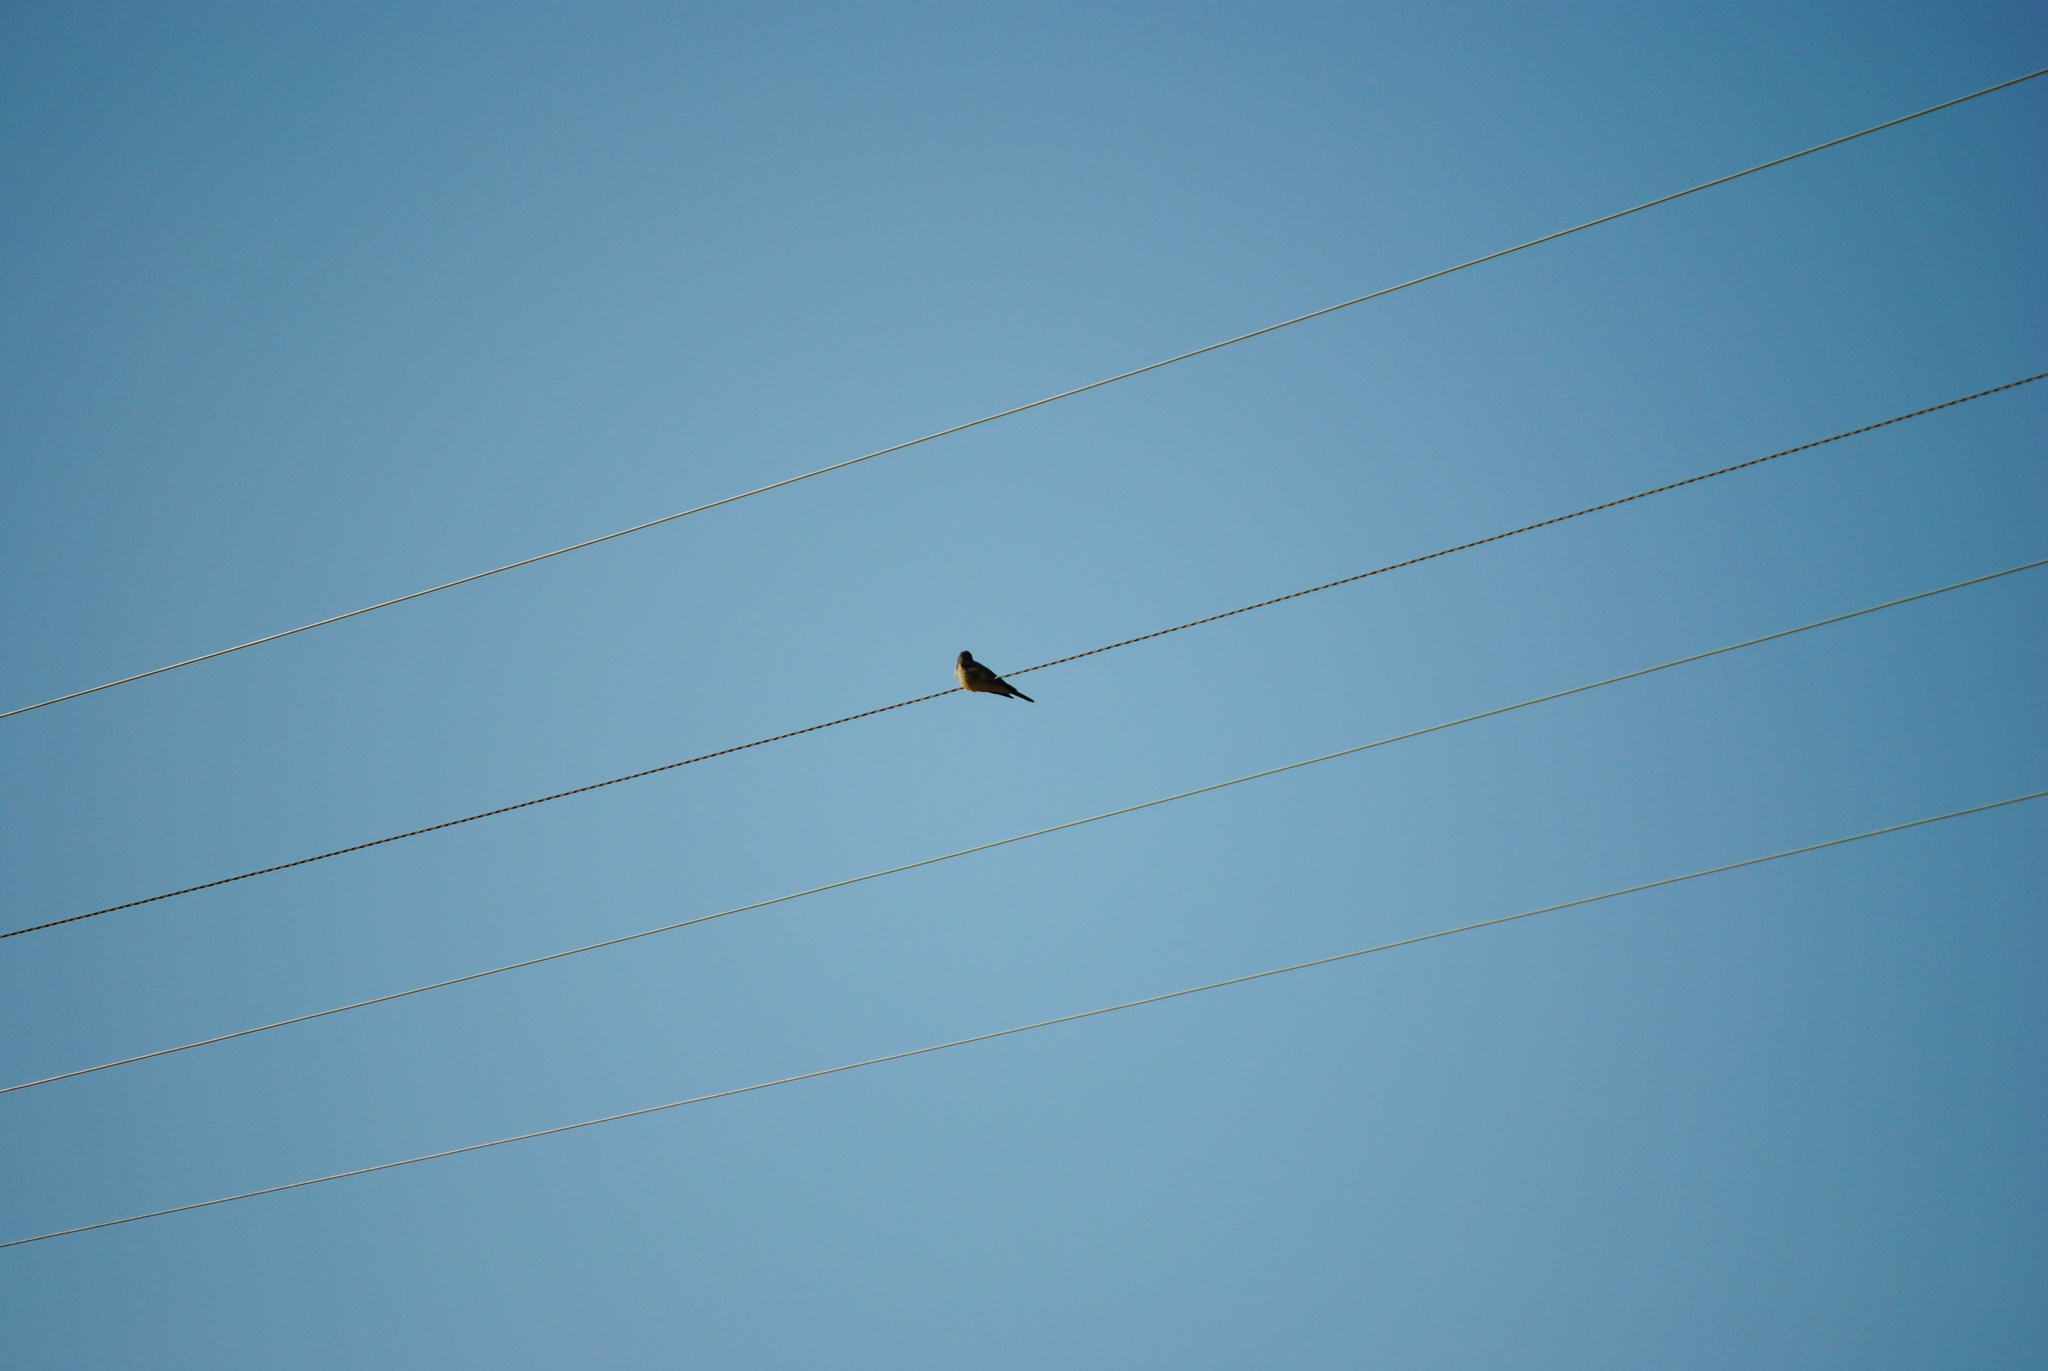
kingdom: Animalia
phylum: Chordata
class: Aves
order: Passeriformes
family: Tyrannidae
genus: Tyrannus
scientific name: Tyrannus vociferans
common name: Cassin's kingbird
